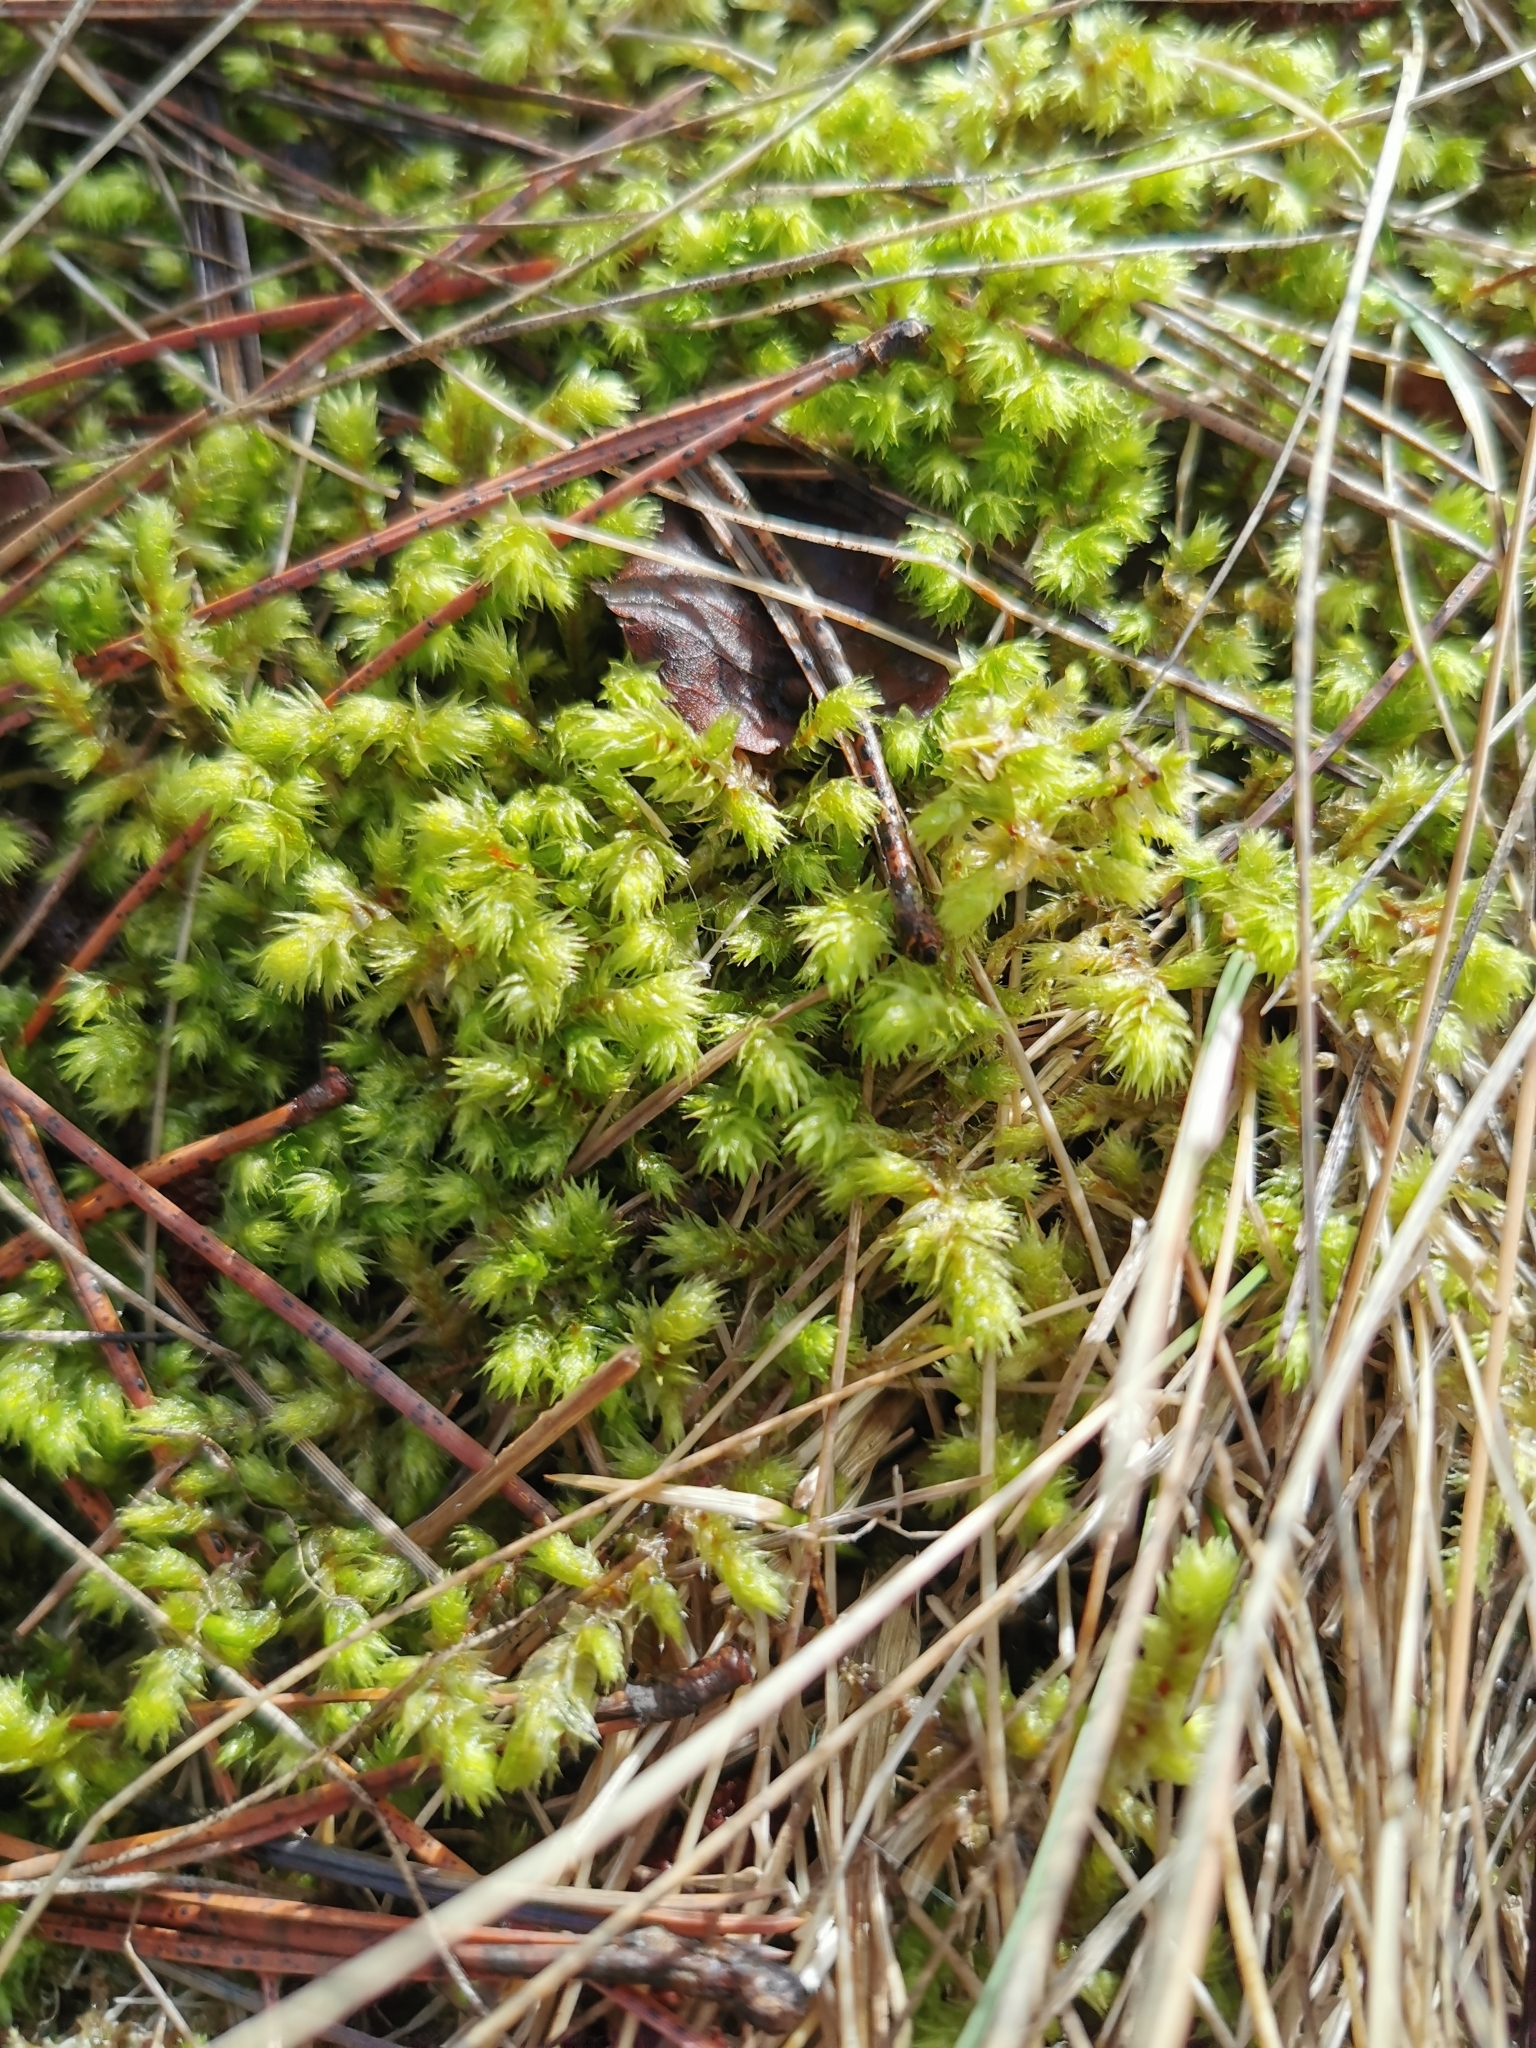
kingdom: Plantae
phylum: Bryophyta
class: Bryopsida
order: Hypnales
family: Hylocomiaceae
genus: Hylocomiadelphus
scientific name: Hylocomiadelphus triquetrus
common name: Rough goose neck moss
